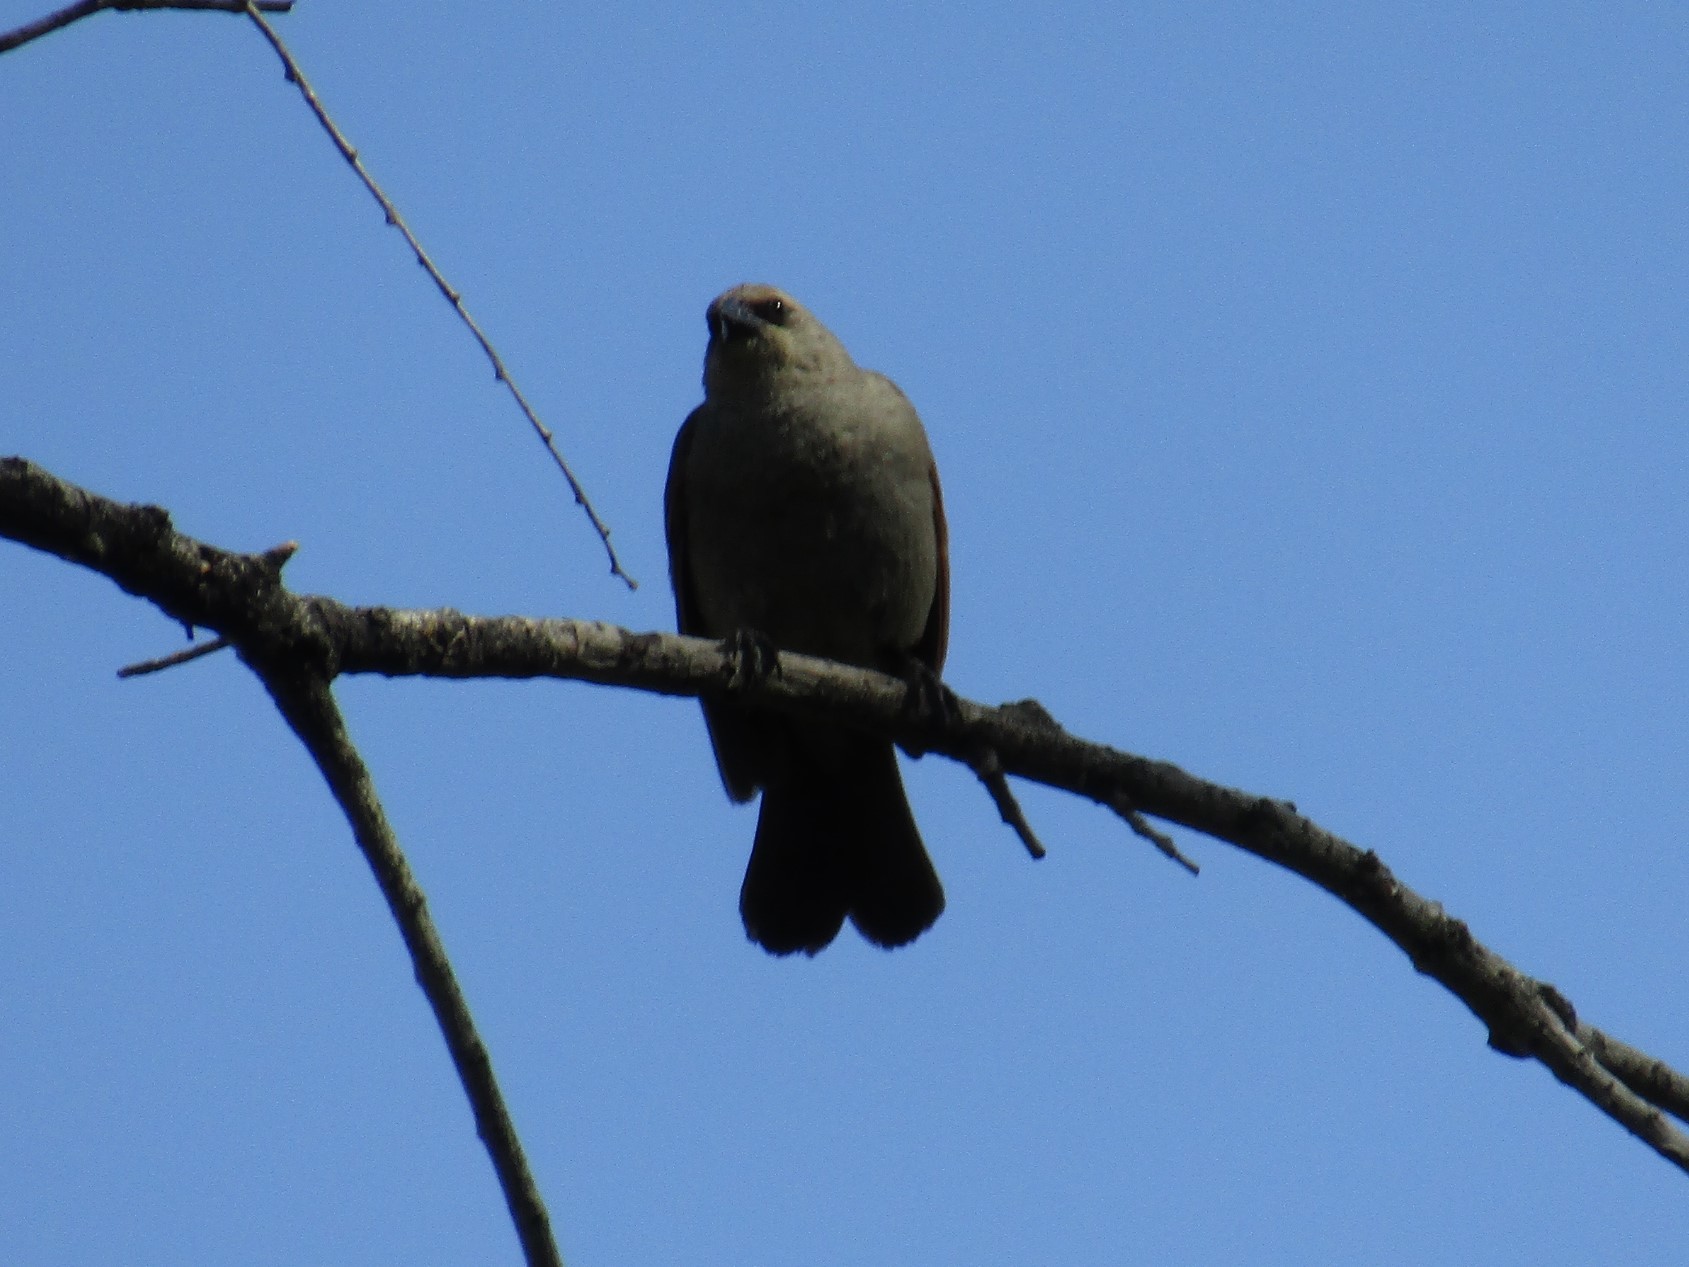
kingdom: Animalia
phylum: Chordata
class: Aves
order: Passeriformes
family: Icteridae
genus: Agelaioides
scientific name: Agelaioides badius
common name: Baywing
